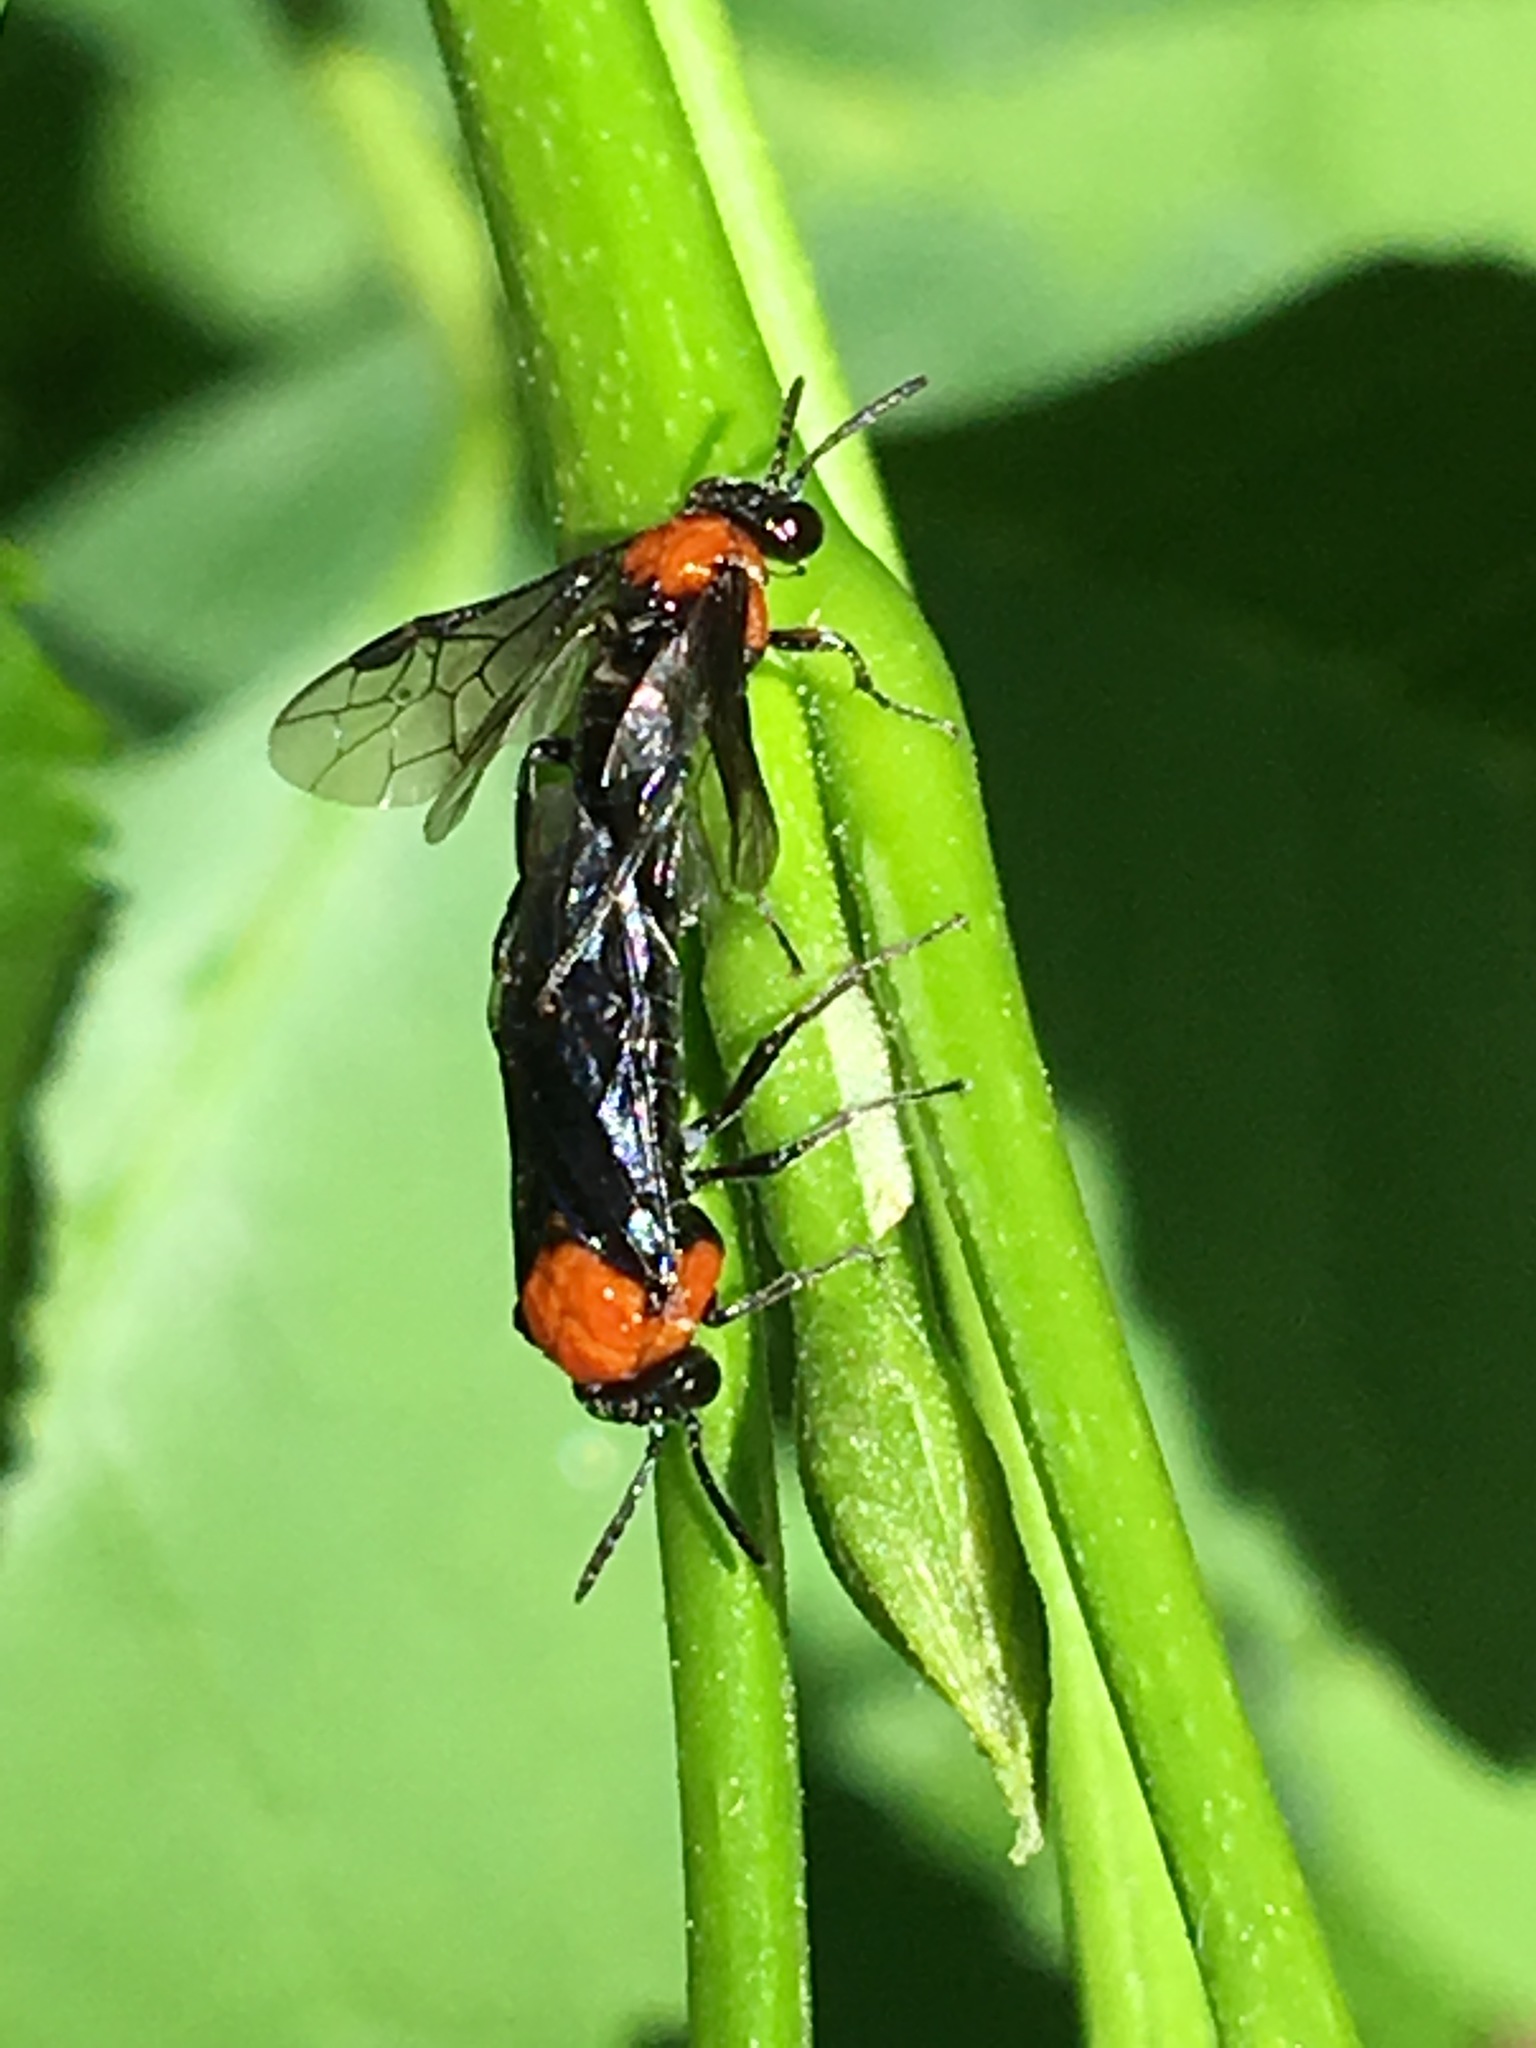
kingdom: Animalia
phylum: Arthropoda
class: Insecta
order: Hymenoptera
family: Tenthredinidae
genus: Tethida
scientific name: Tethida barda
